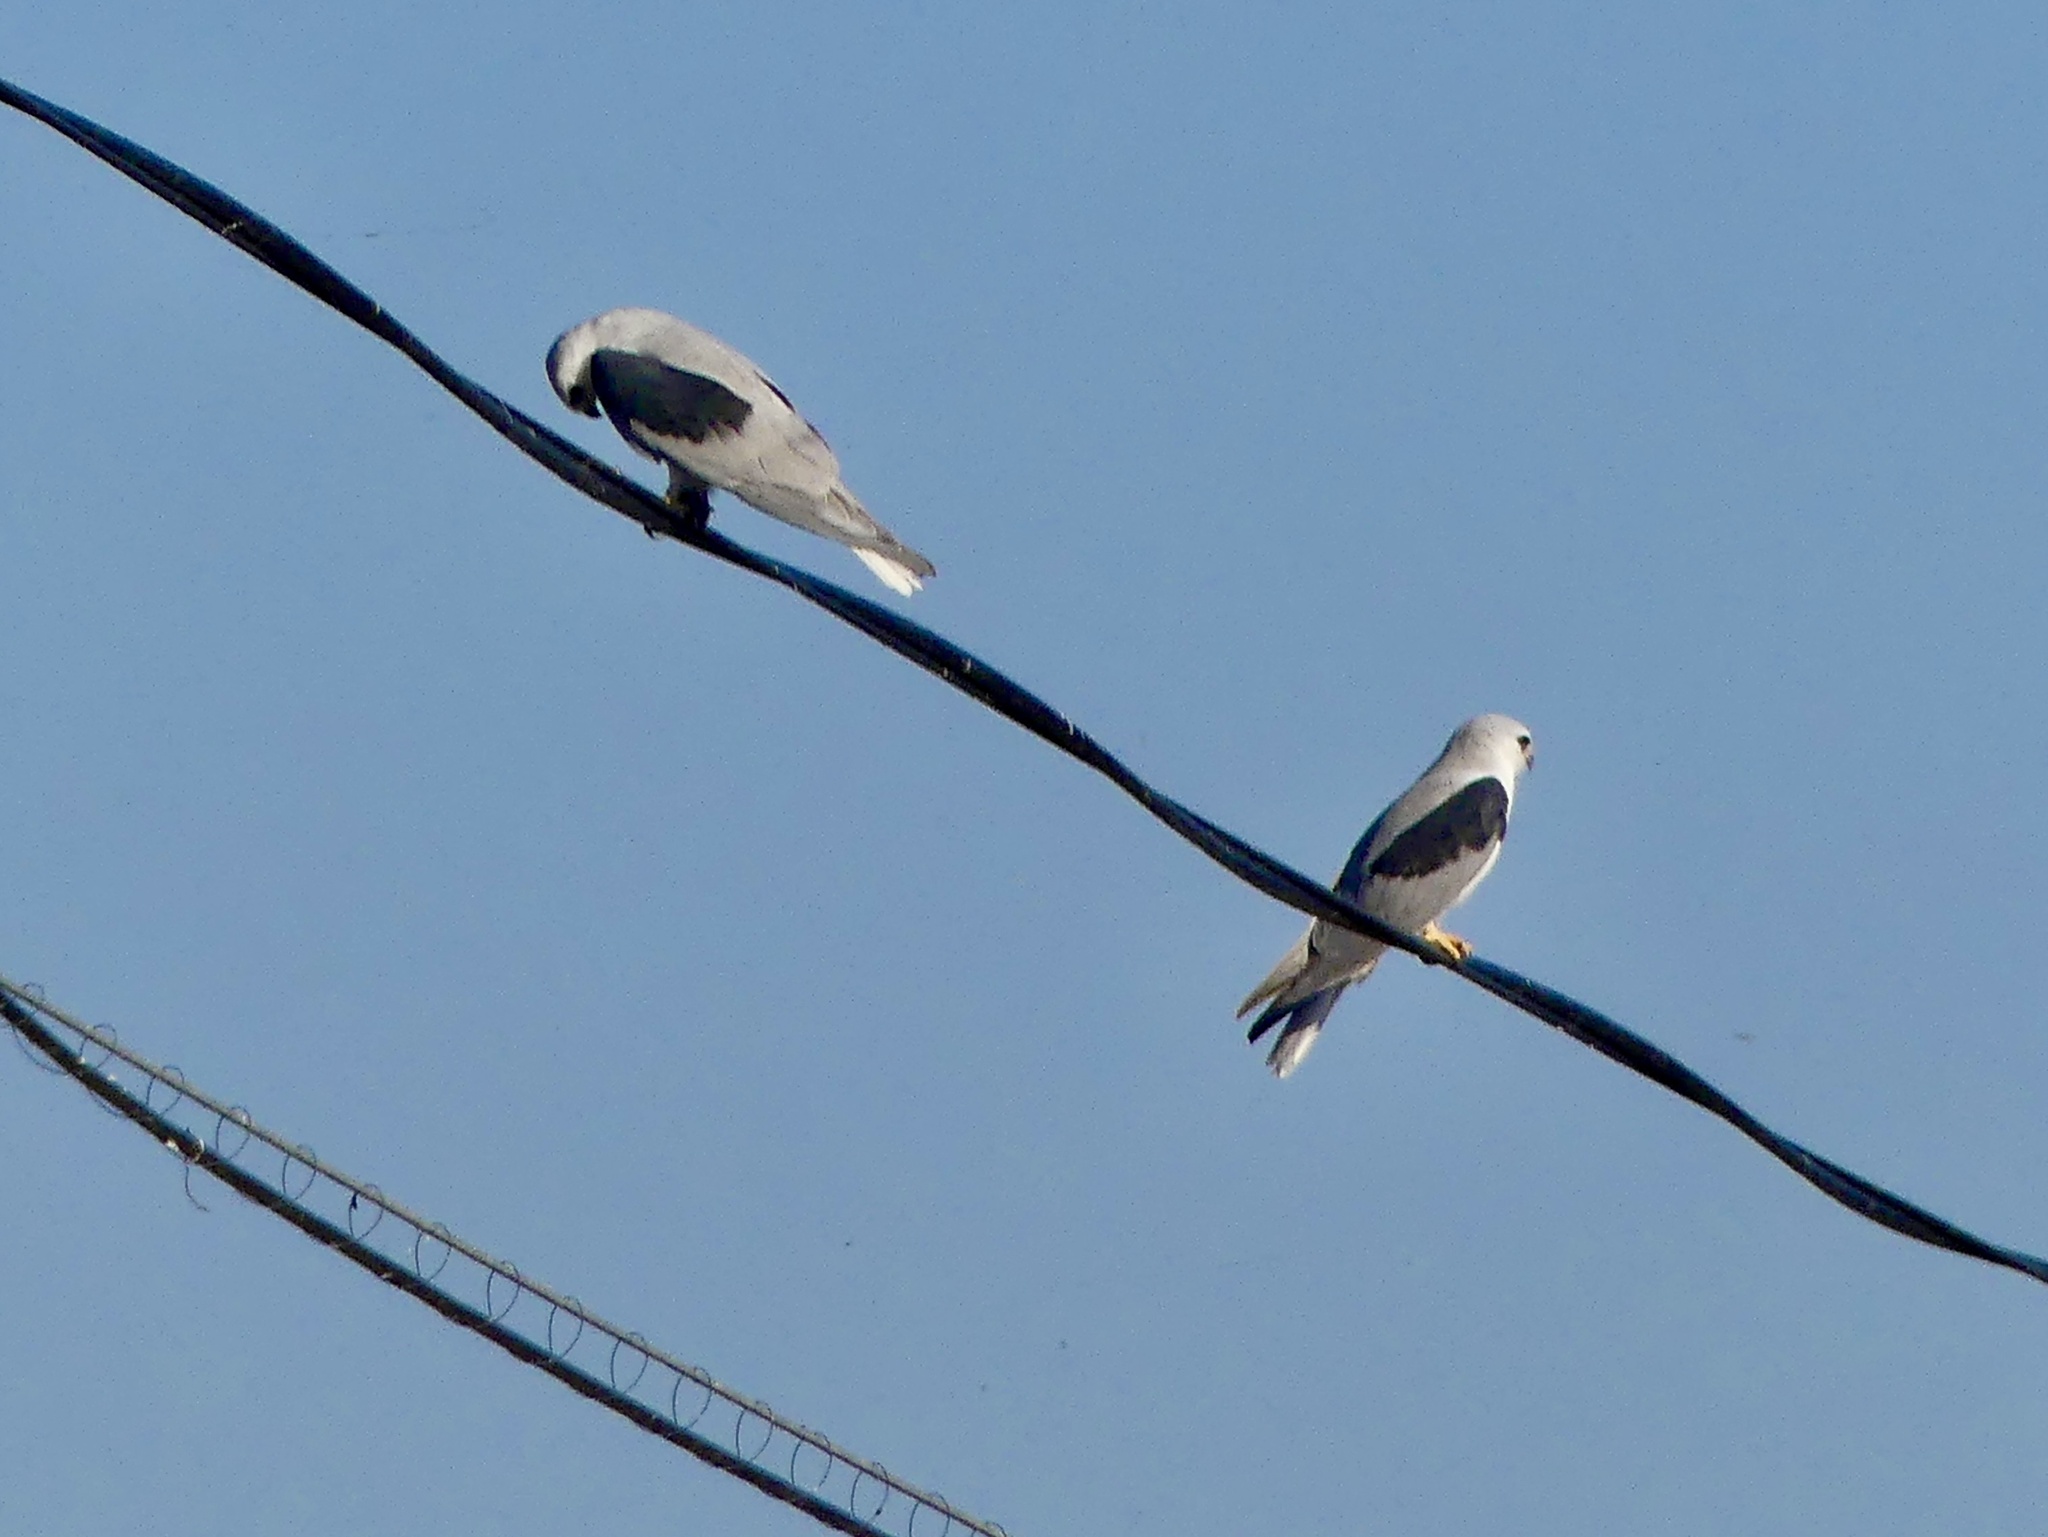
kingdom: Animalia
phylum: Chordata
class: Aves
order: Accipitriformes
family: Accipitridae
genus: Elanus
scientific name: Elanus leucurus
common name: White-tailed kite
